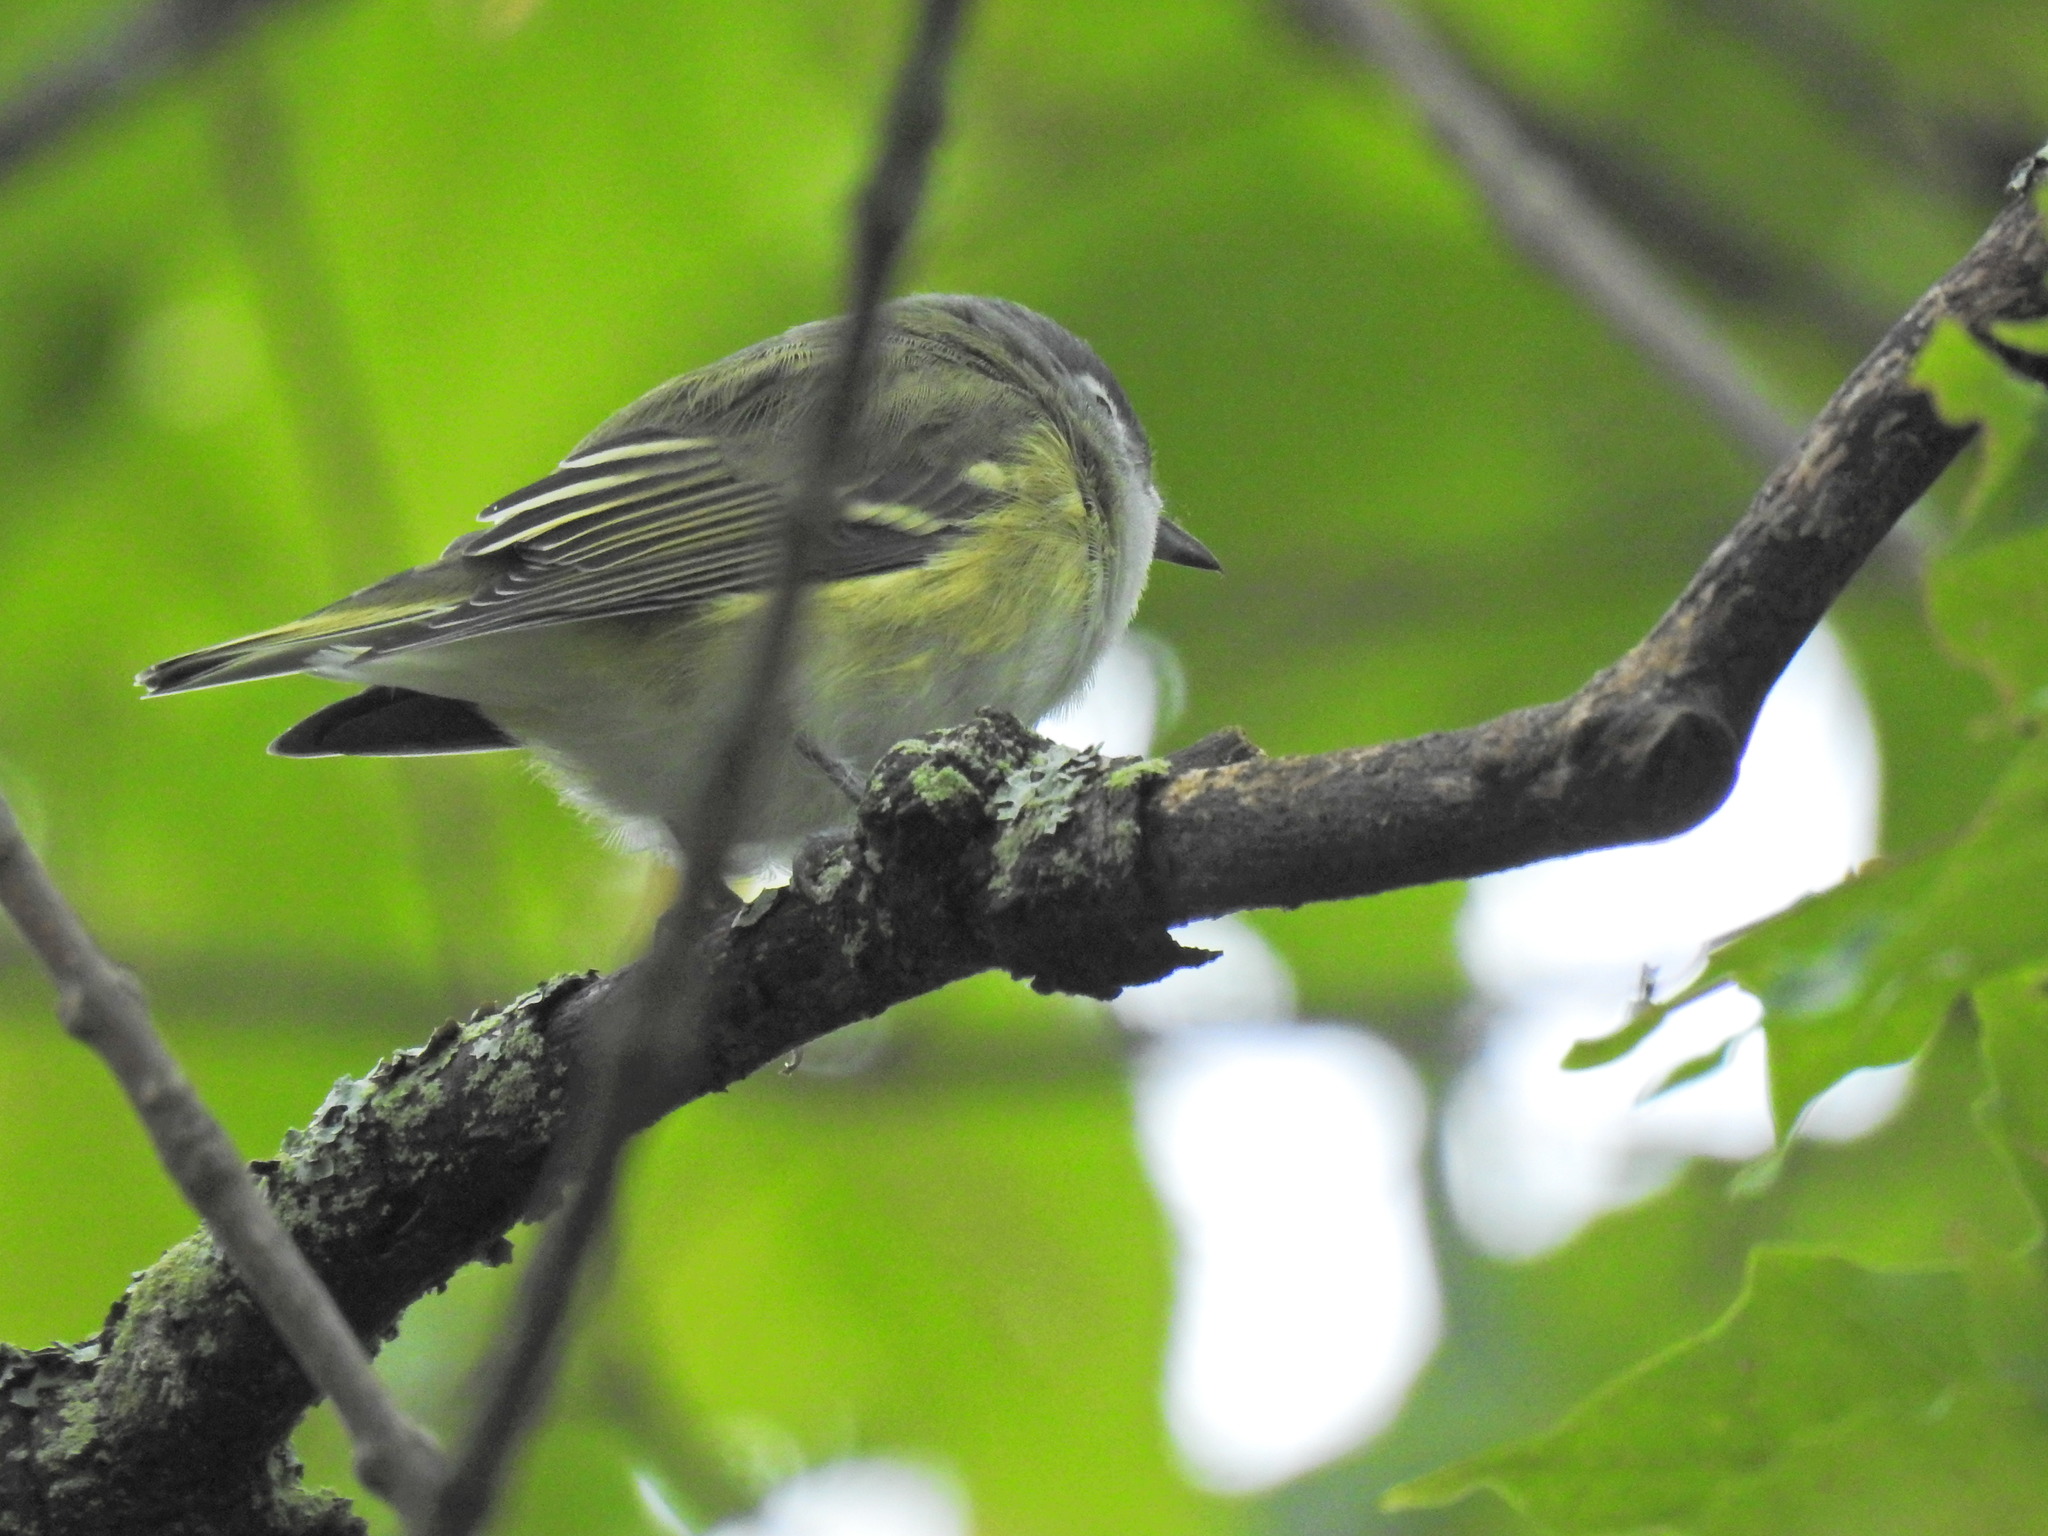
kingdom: Animalia
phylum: Chordata
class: Aves
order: Passeriformes
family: Vireonidae
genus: Vireo
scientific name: Vireo solitarius
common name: Blue-headed vireo
